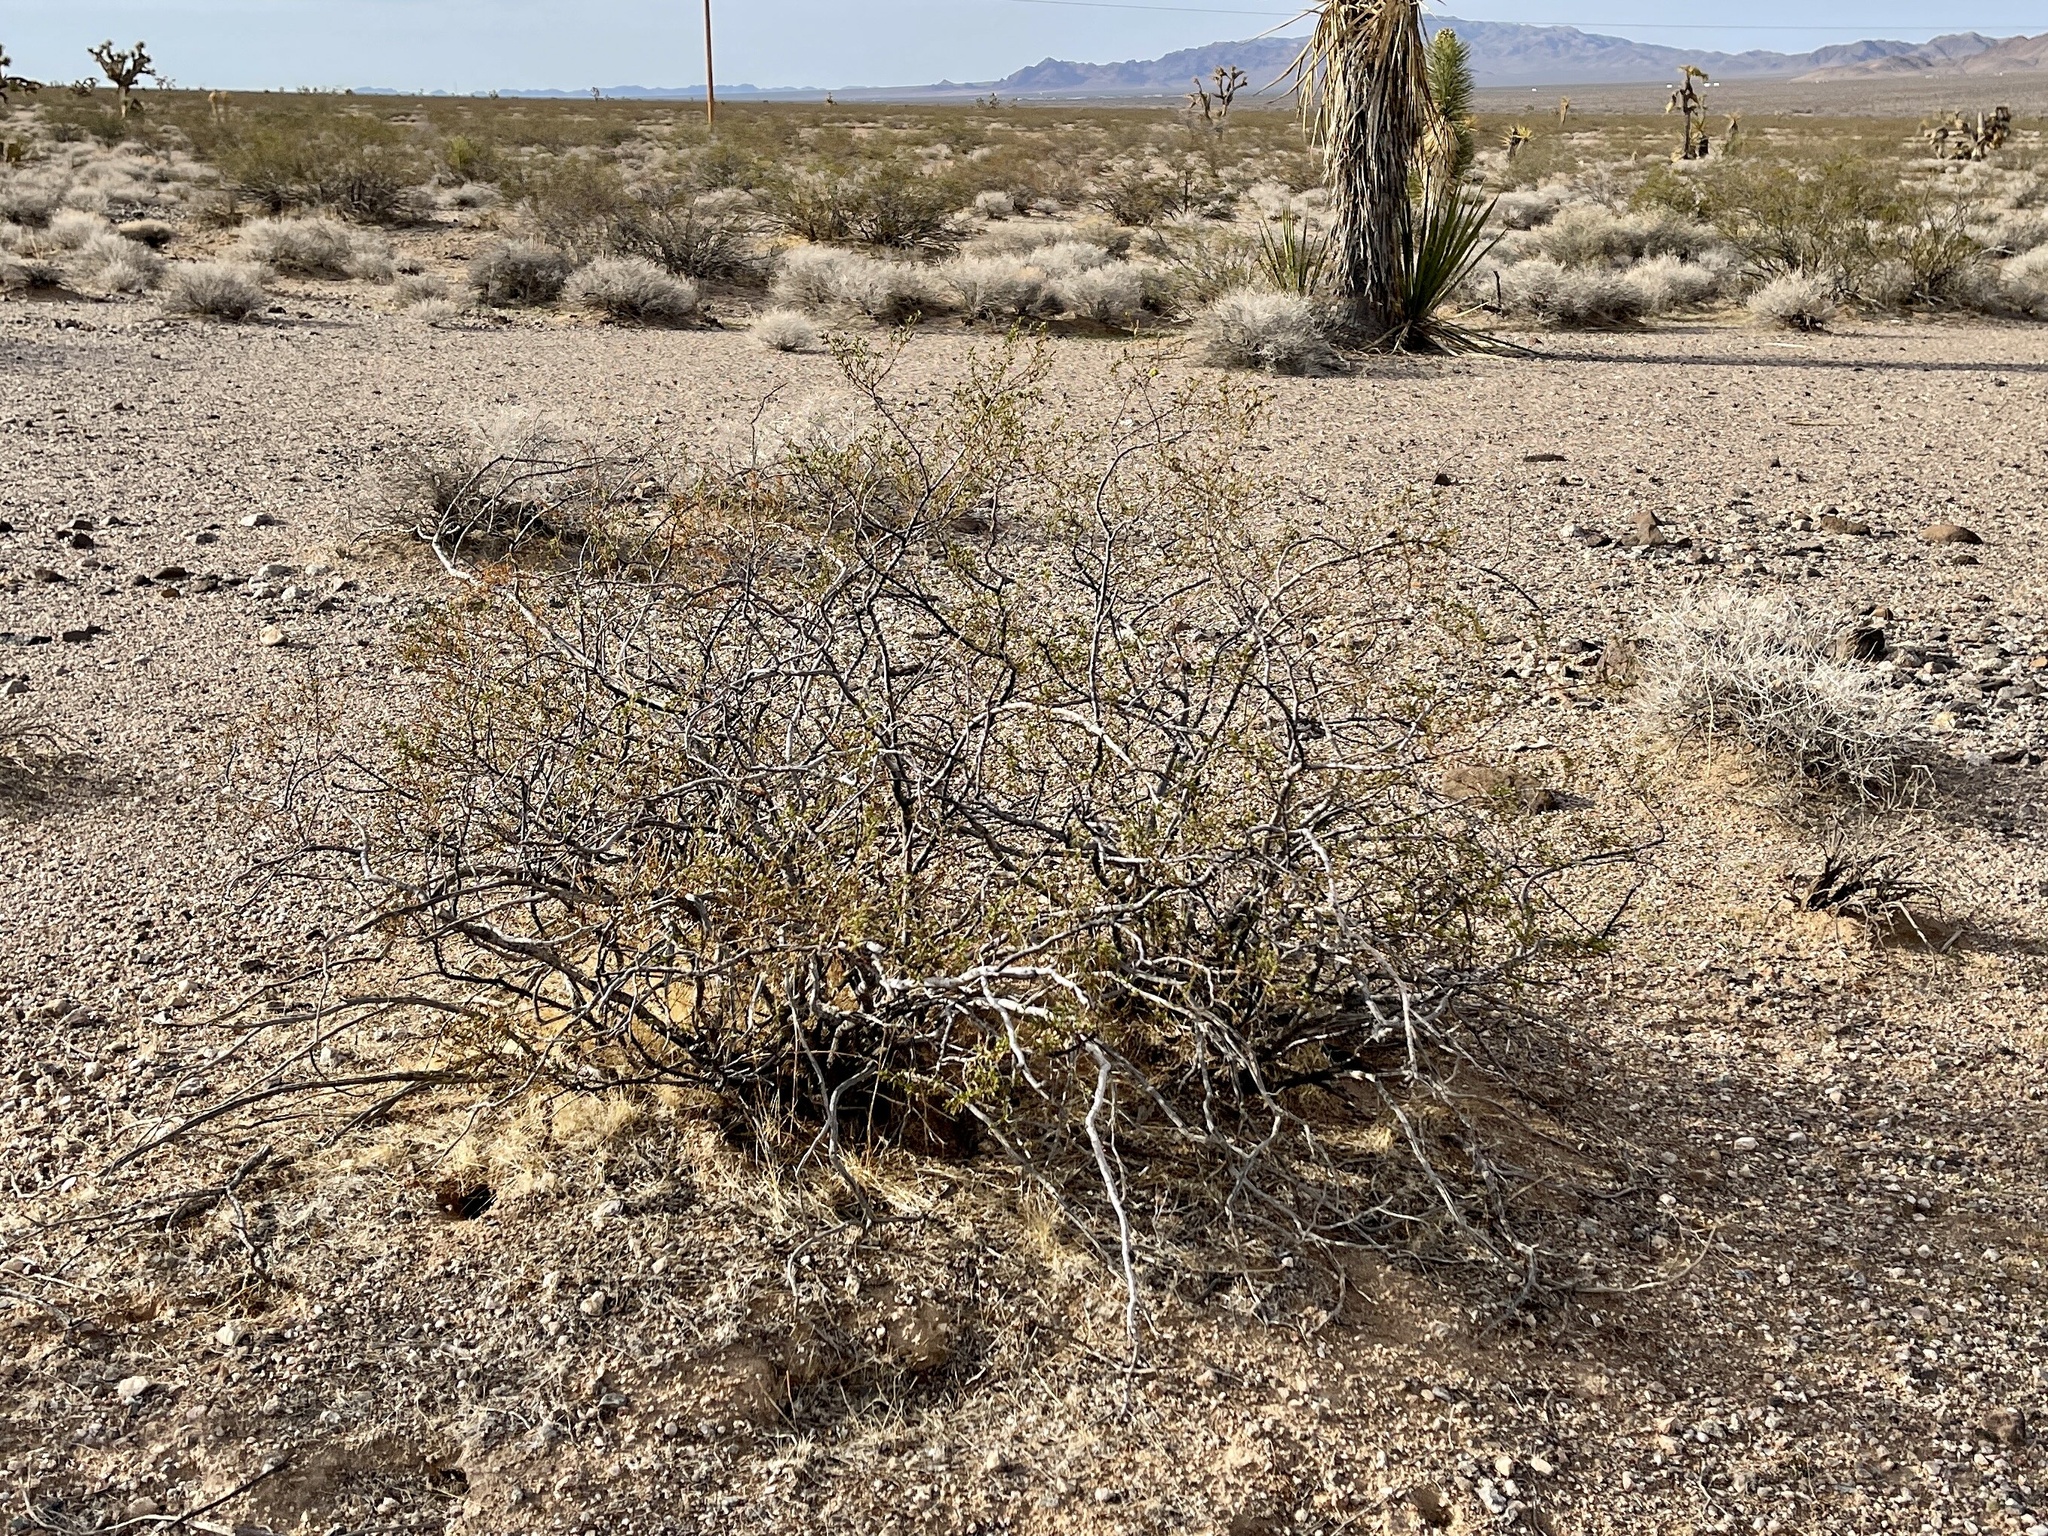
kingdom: Plantae
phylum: Tracheophyta
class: Magnoliopsida
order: Zygophyllales
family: Zygophyllaceae
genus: Larrea
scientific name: Larrea tridentata
